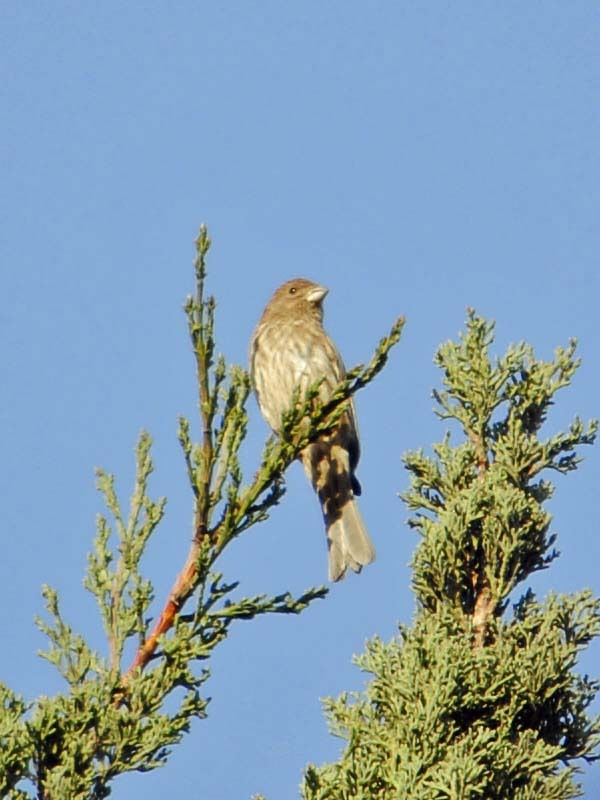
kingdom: Animalia
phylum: Chordata
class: Aves
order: Passeriformes
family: Fringillidae
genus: Haemorhous
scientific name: Haemorhous mexicanus
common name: House finch
